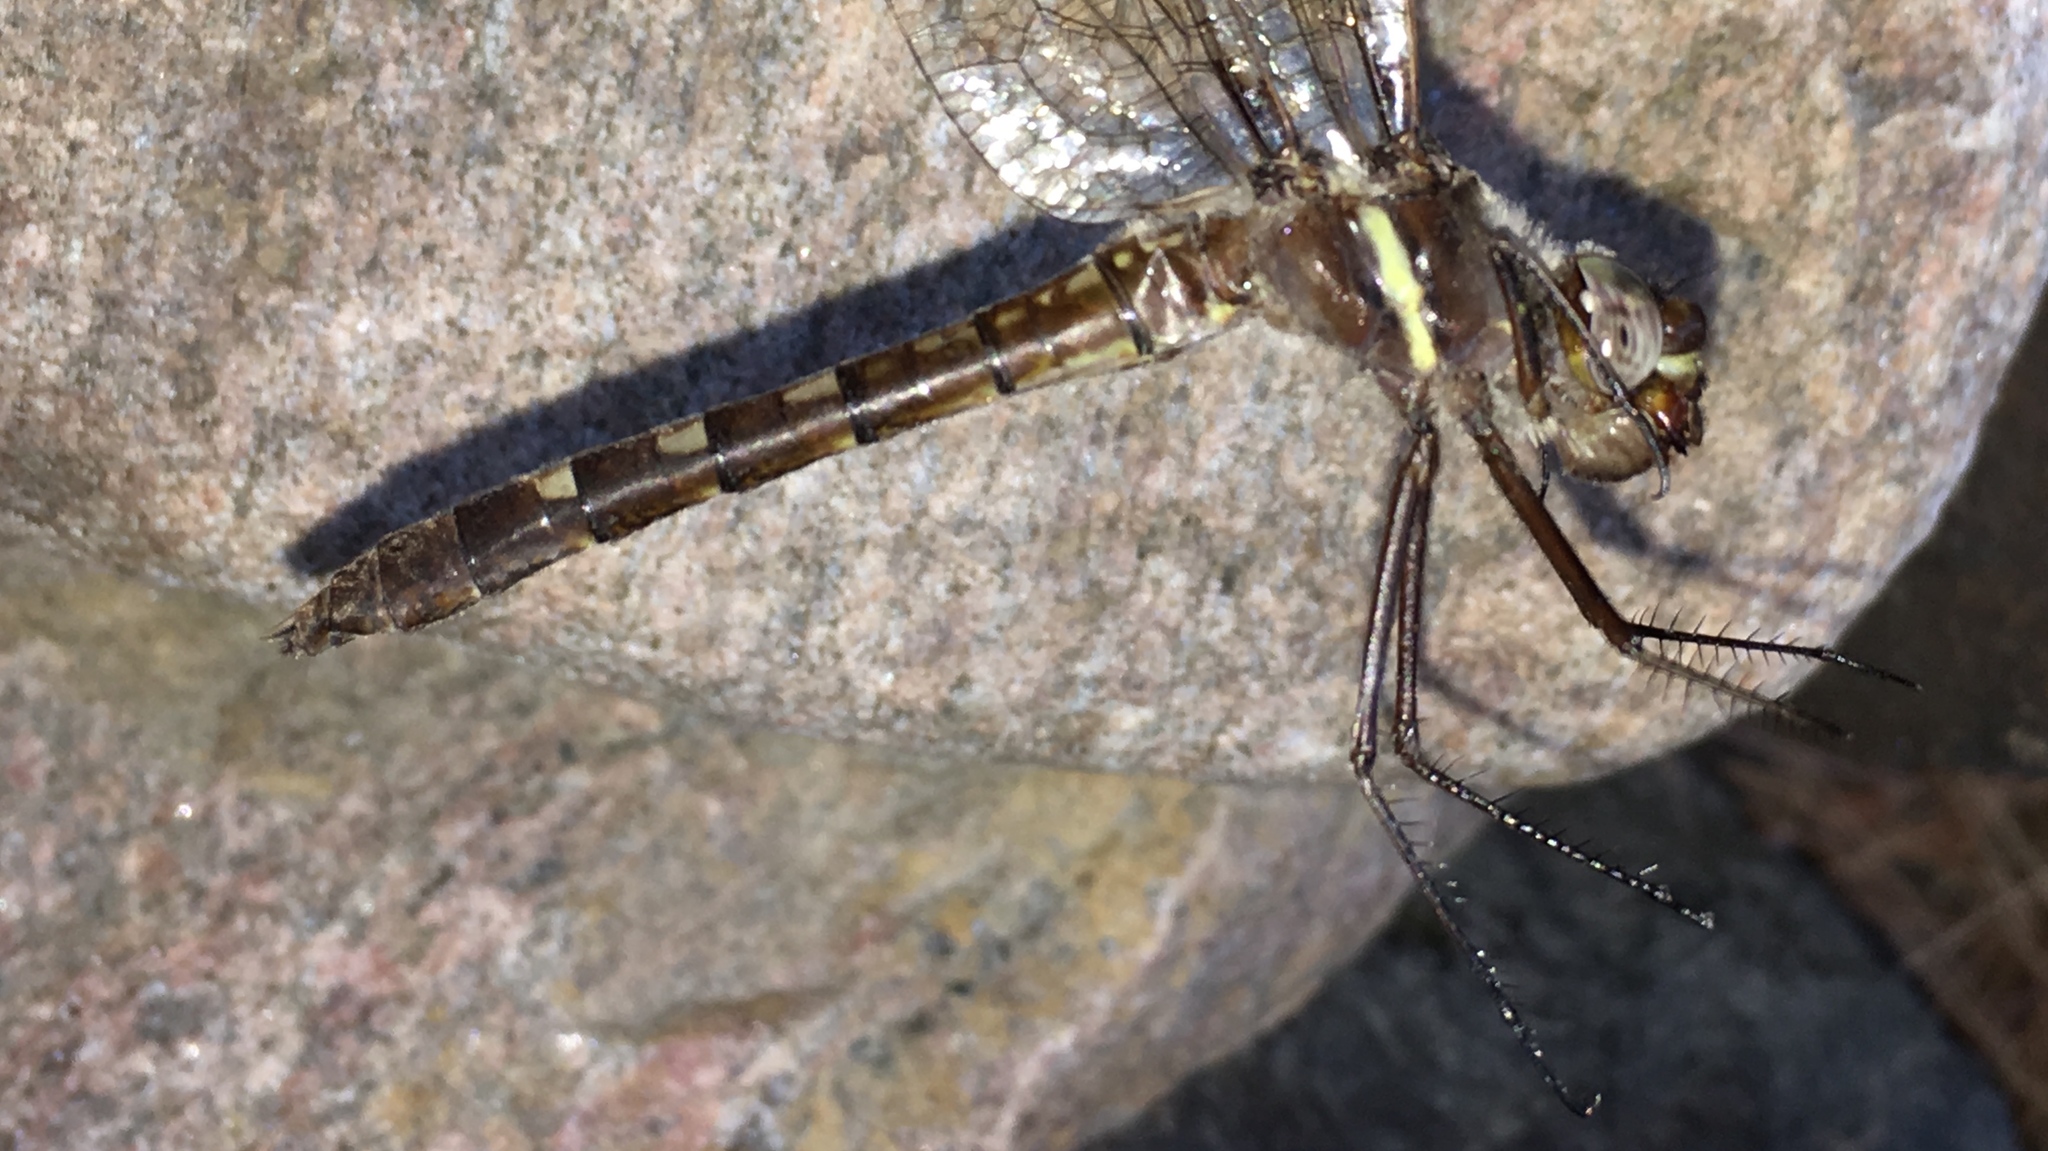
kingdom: Animalia
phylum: Arthropoda
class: Insecta
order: Odonata
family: Macromiidae
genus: Didymops
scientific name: Didymops transversa
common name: Stream cruiser
